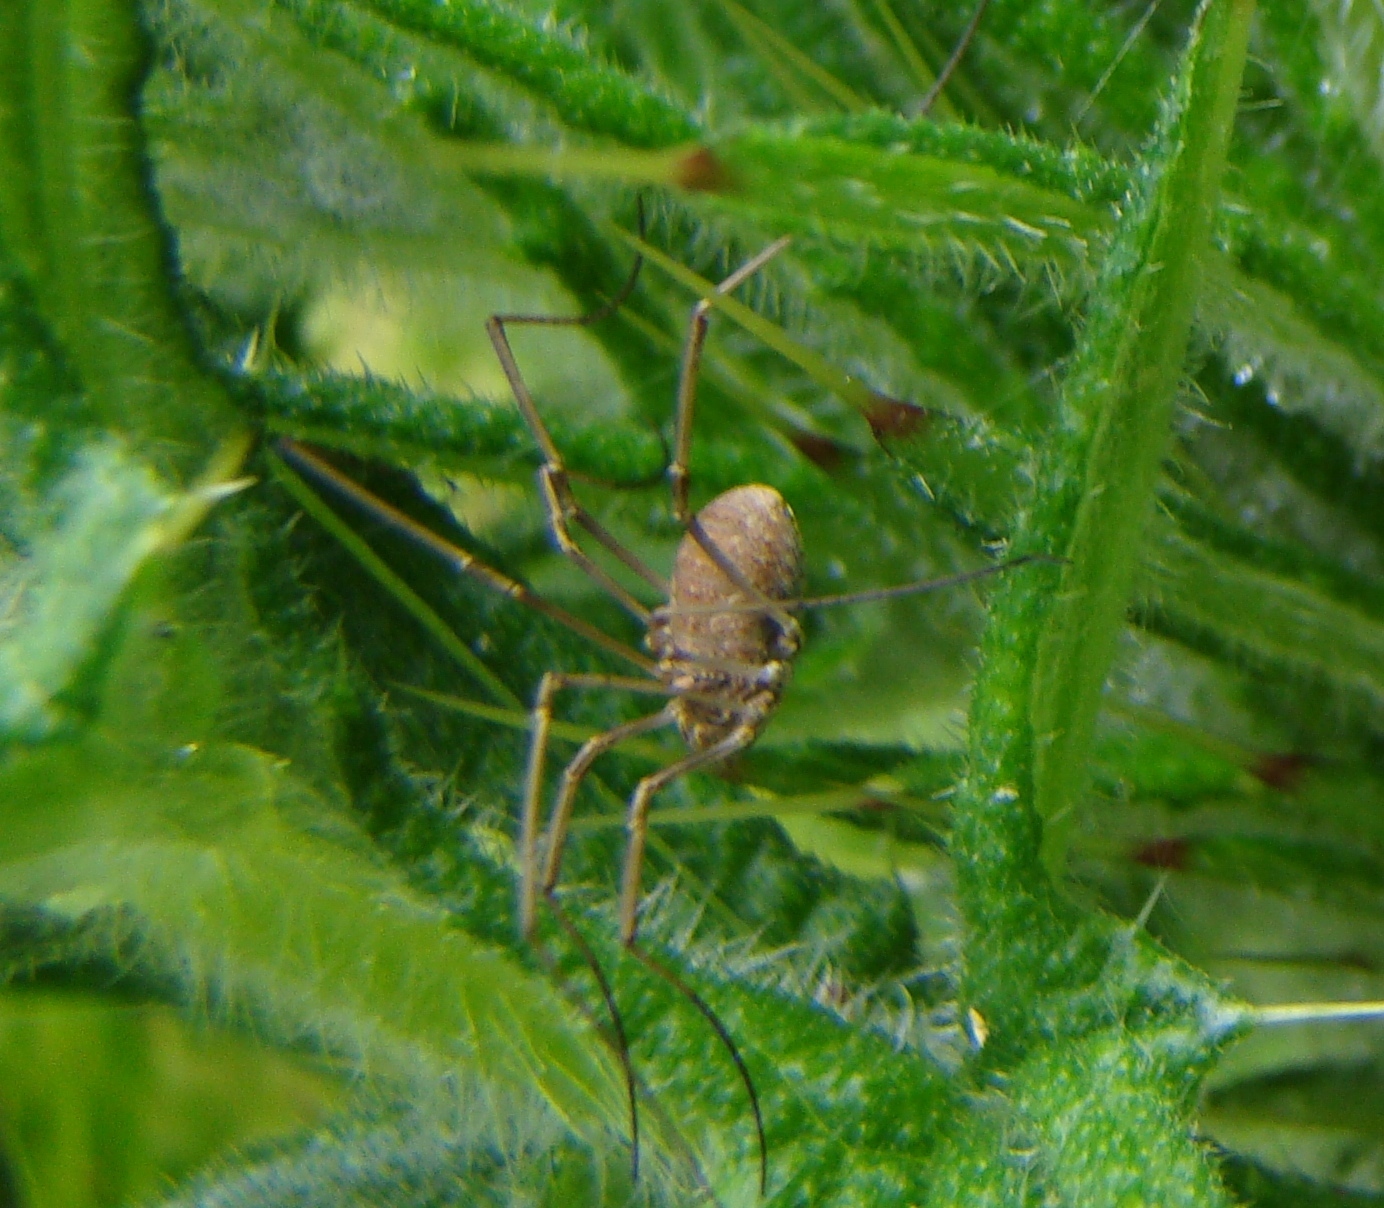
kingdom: Animalia
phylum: Arthropoda
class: Arachnida
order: Opiliones
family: Phalangiidae
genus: Phalangium
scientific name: Phalangium opilio
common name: Daddy longleg
